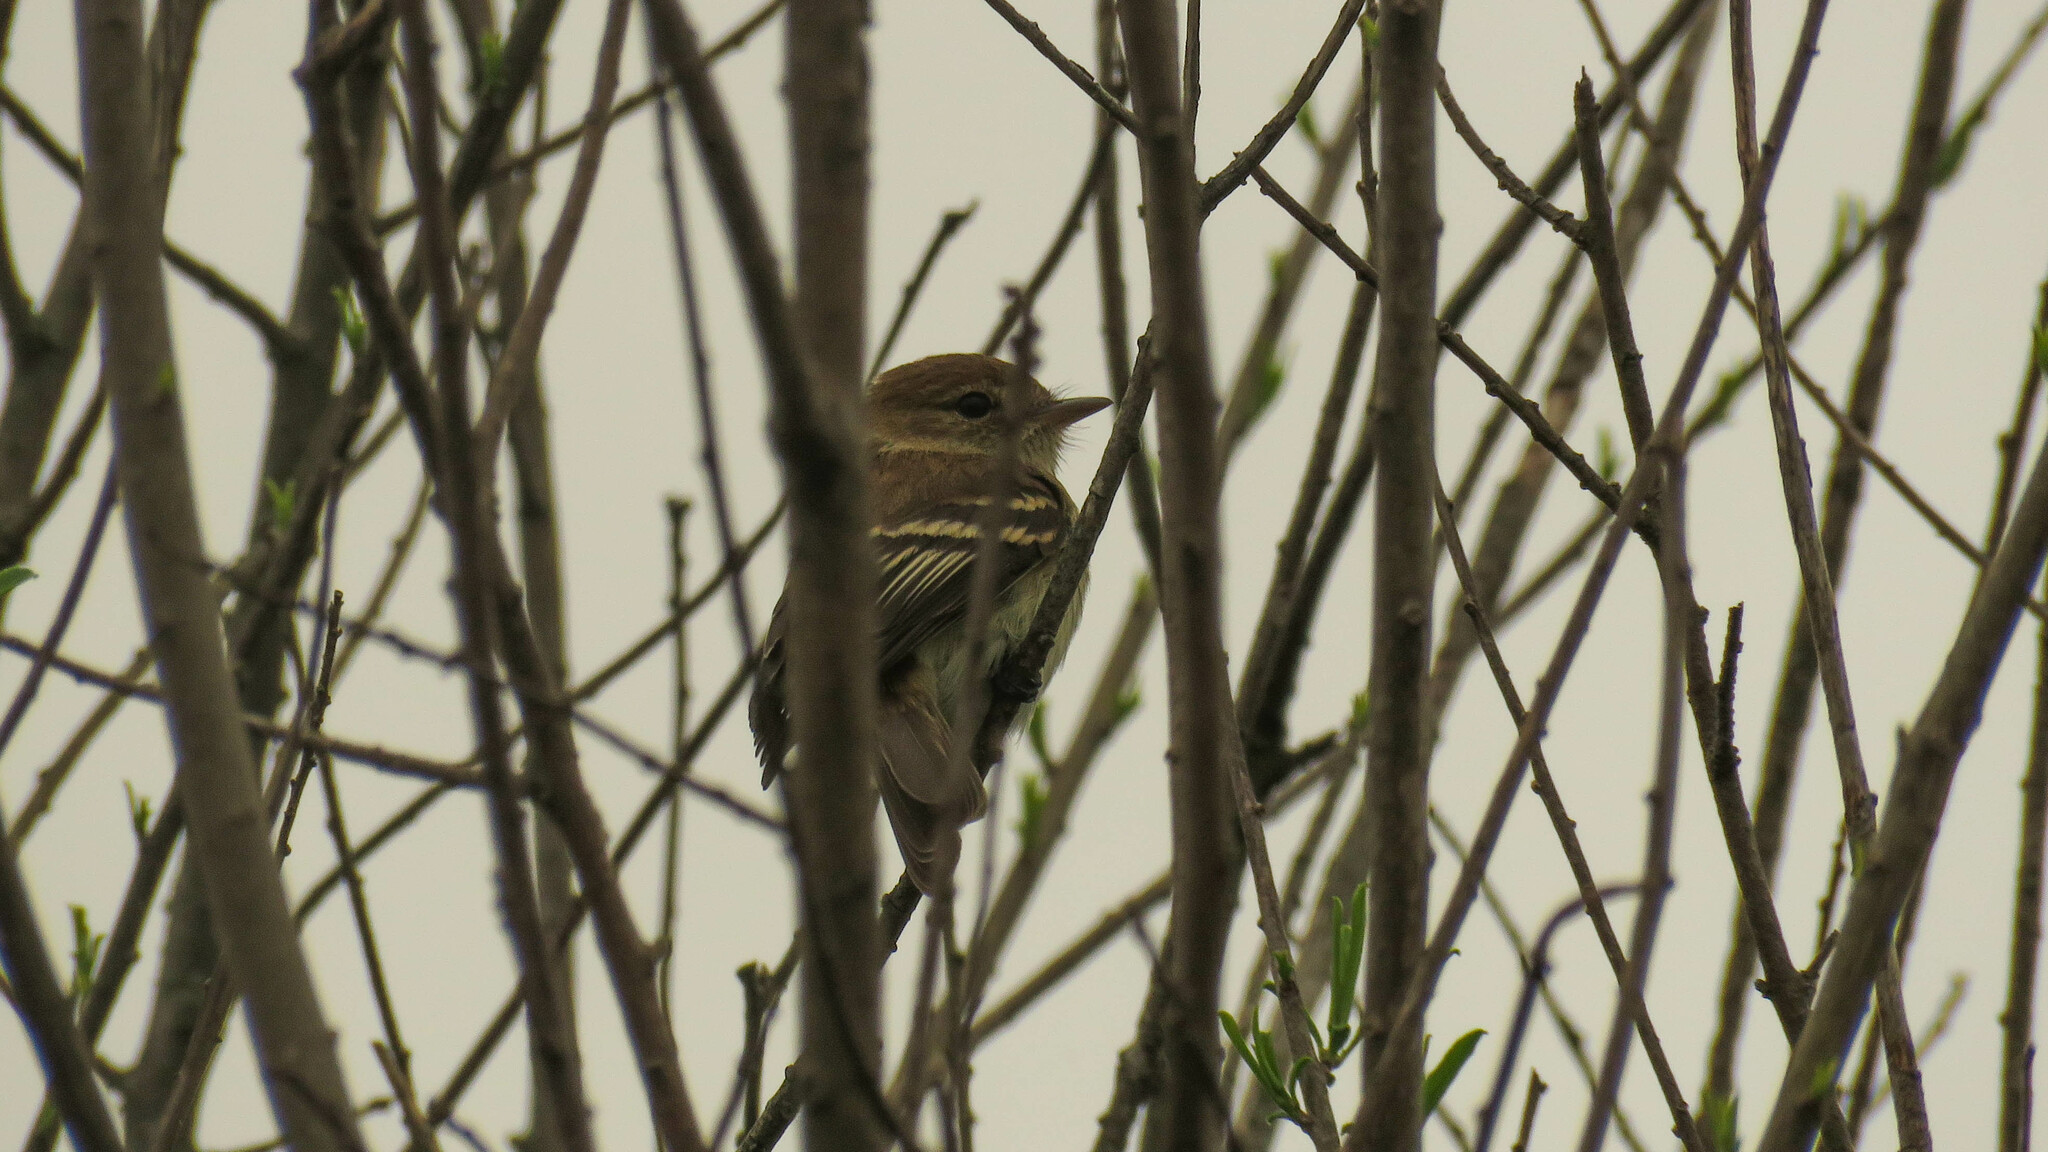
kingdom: Animalia
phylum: Chordata
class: Aves
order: Passeriformes
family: Tyrannidae
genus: Myiophobus
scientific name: Myiophobus fasciatus
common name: Bran-colored flycatcher
